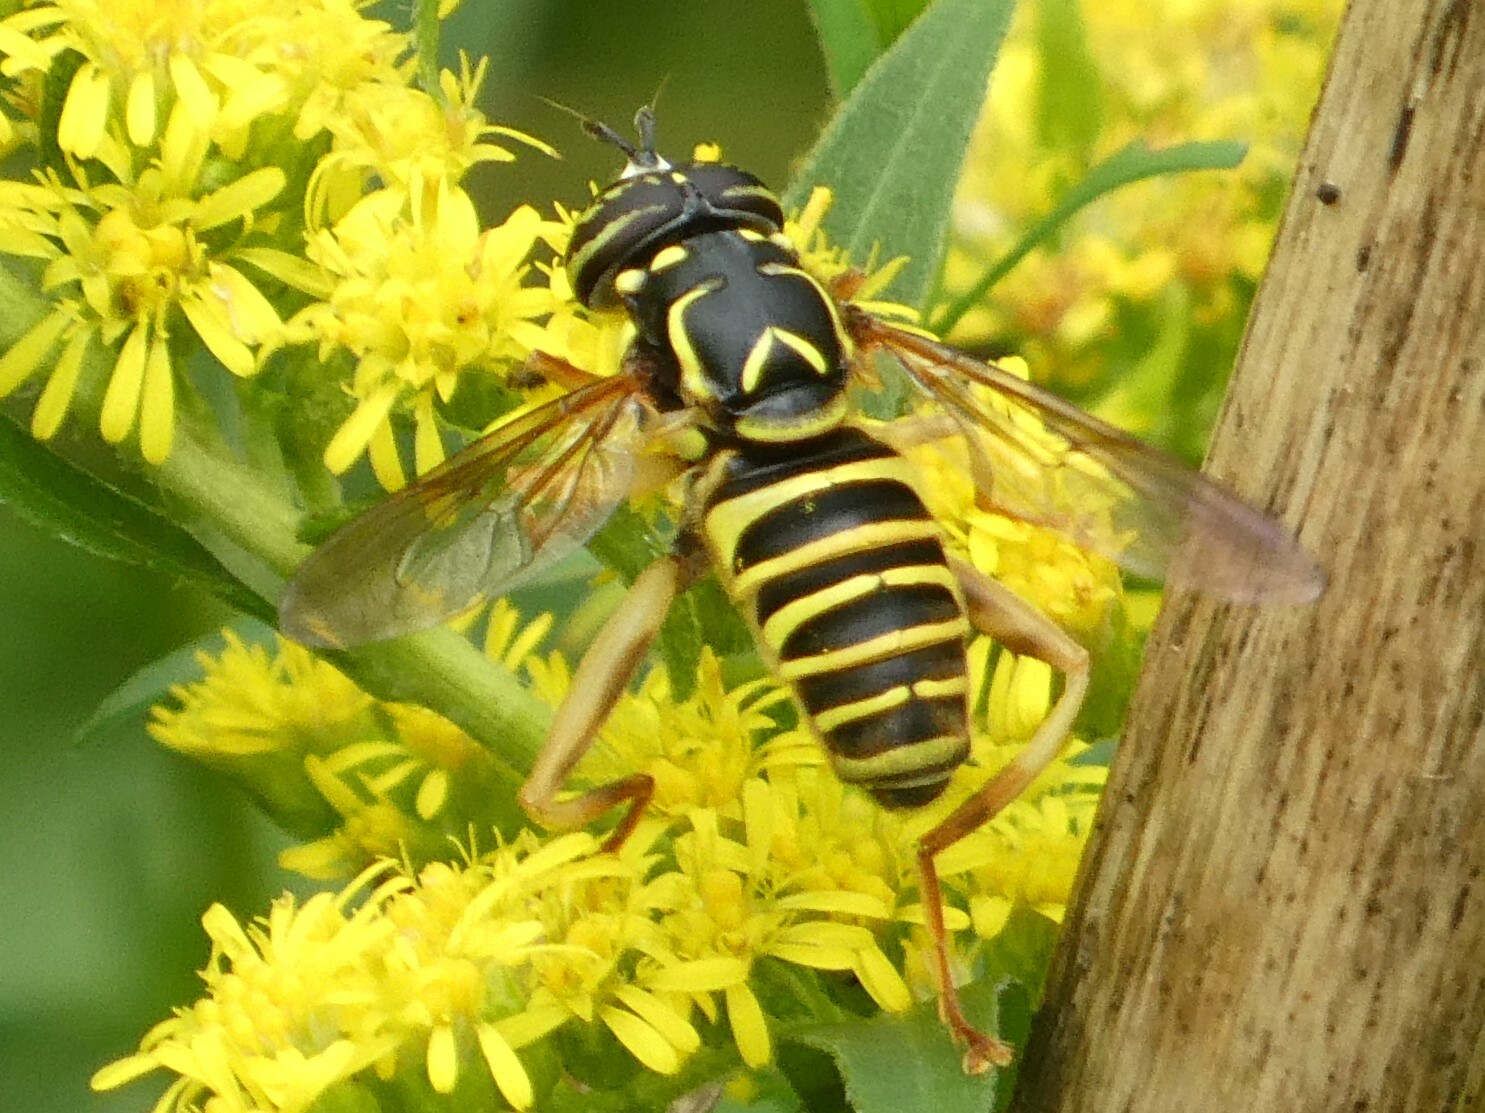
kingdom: Animalia
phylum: Arthropoda
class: Insecta
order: Diptera
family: Syrphidae
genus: Spilomyia
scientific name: Spilomyia longicornis
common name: Eastern hornet fly
